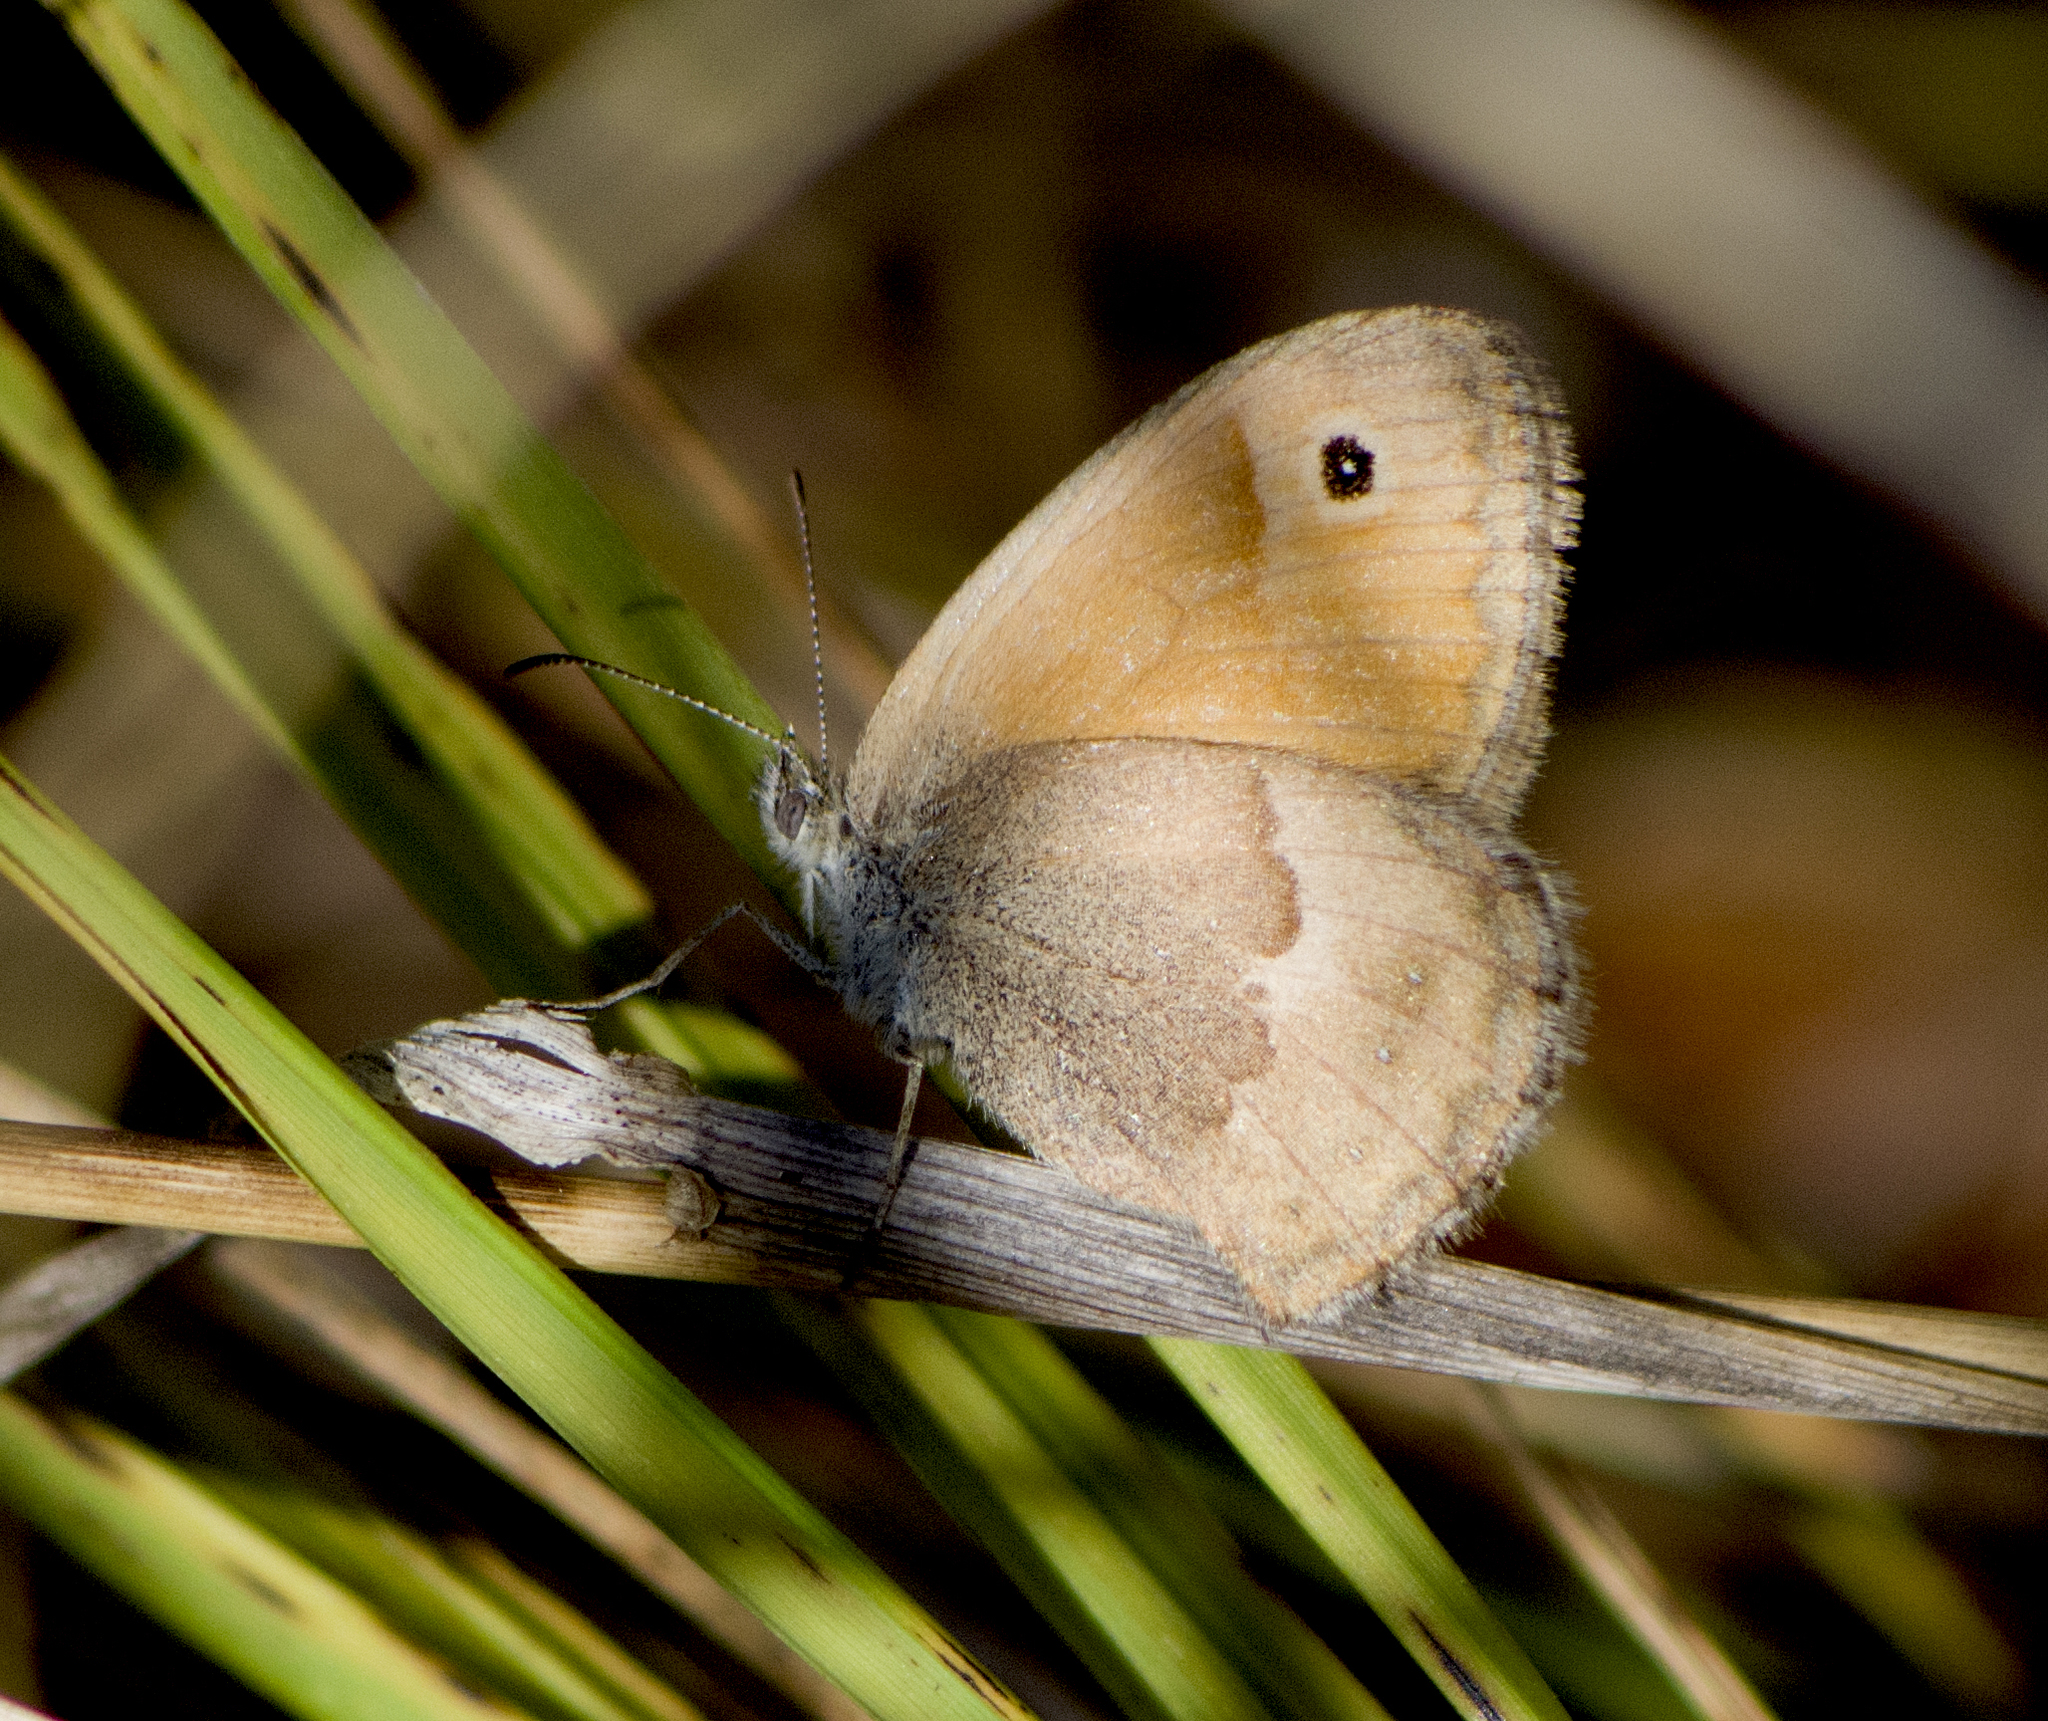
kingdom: Animalia
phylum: Arthropoda
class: Insecta
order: Lepidoptera
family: Nymphalidae
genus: Coenonympha
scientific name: Coenonympha pamphilus
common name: Small heath
